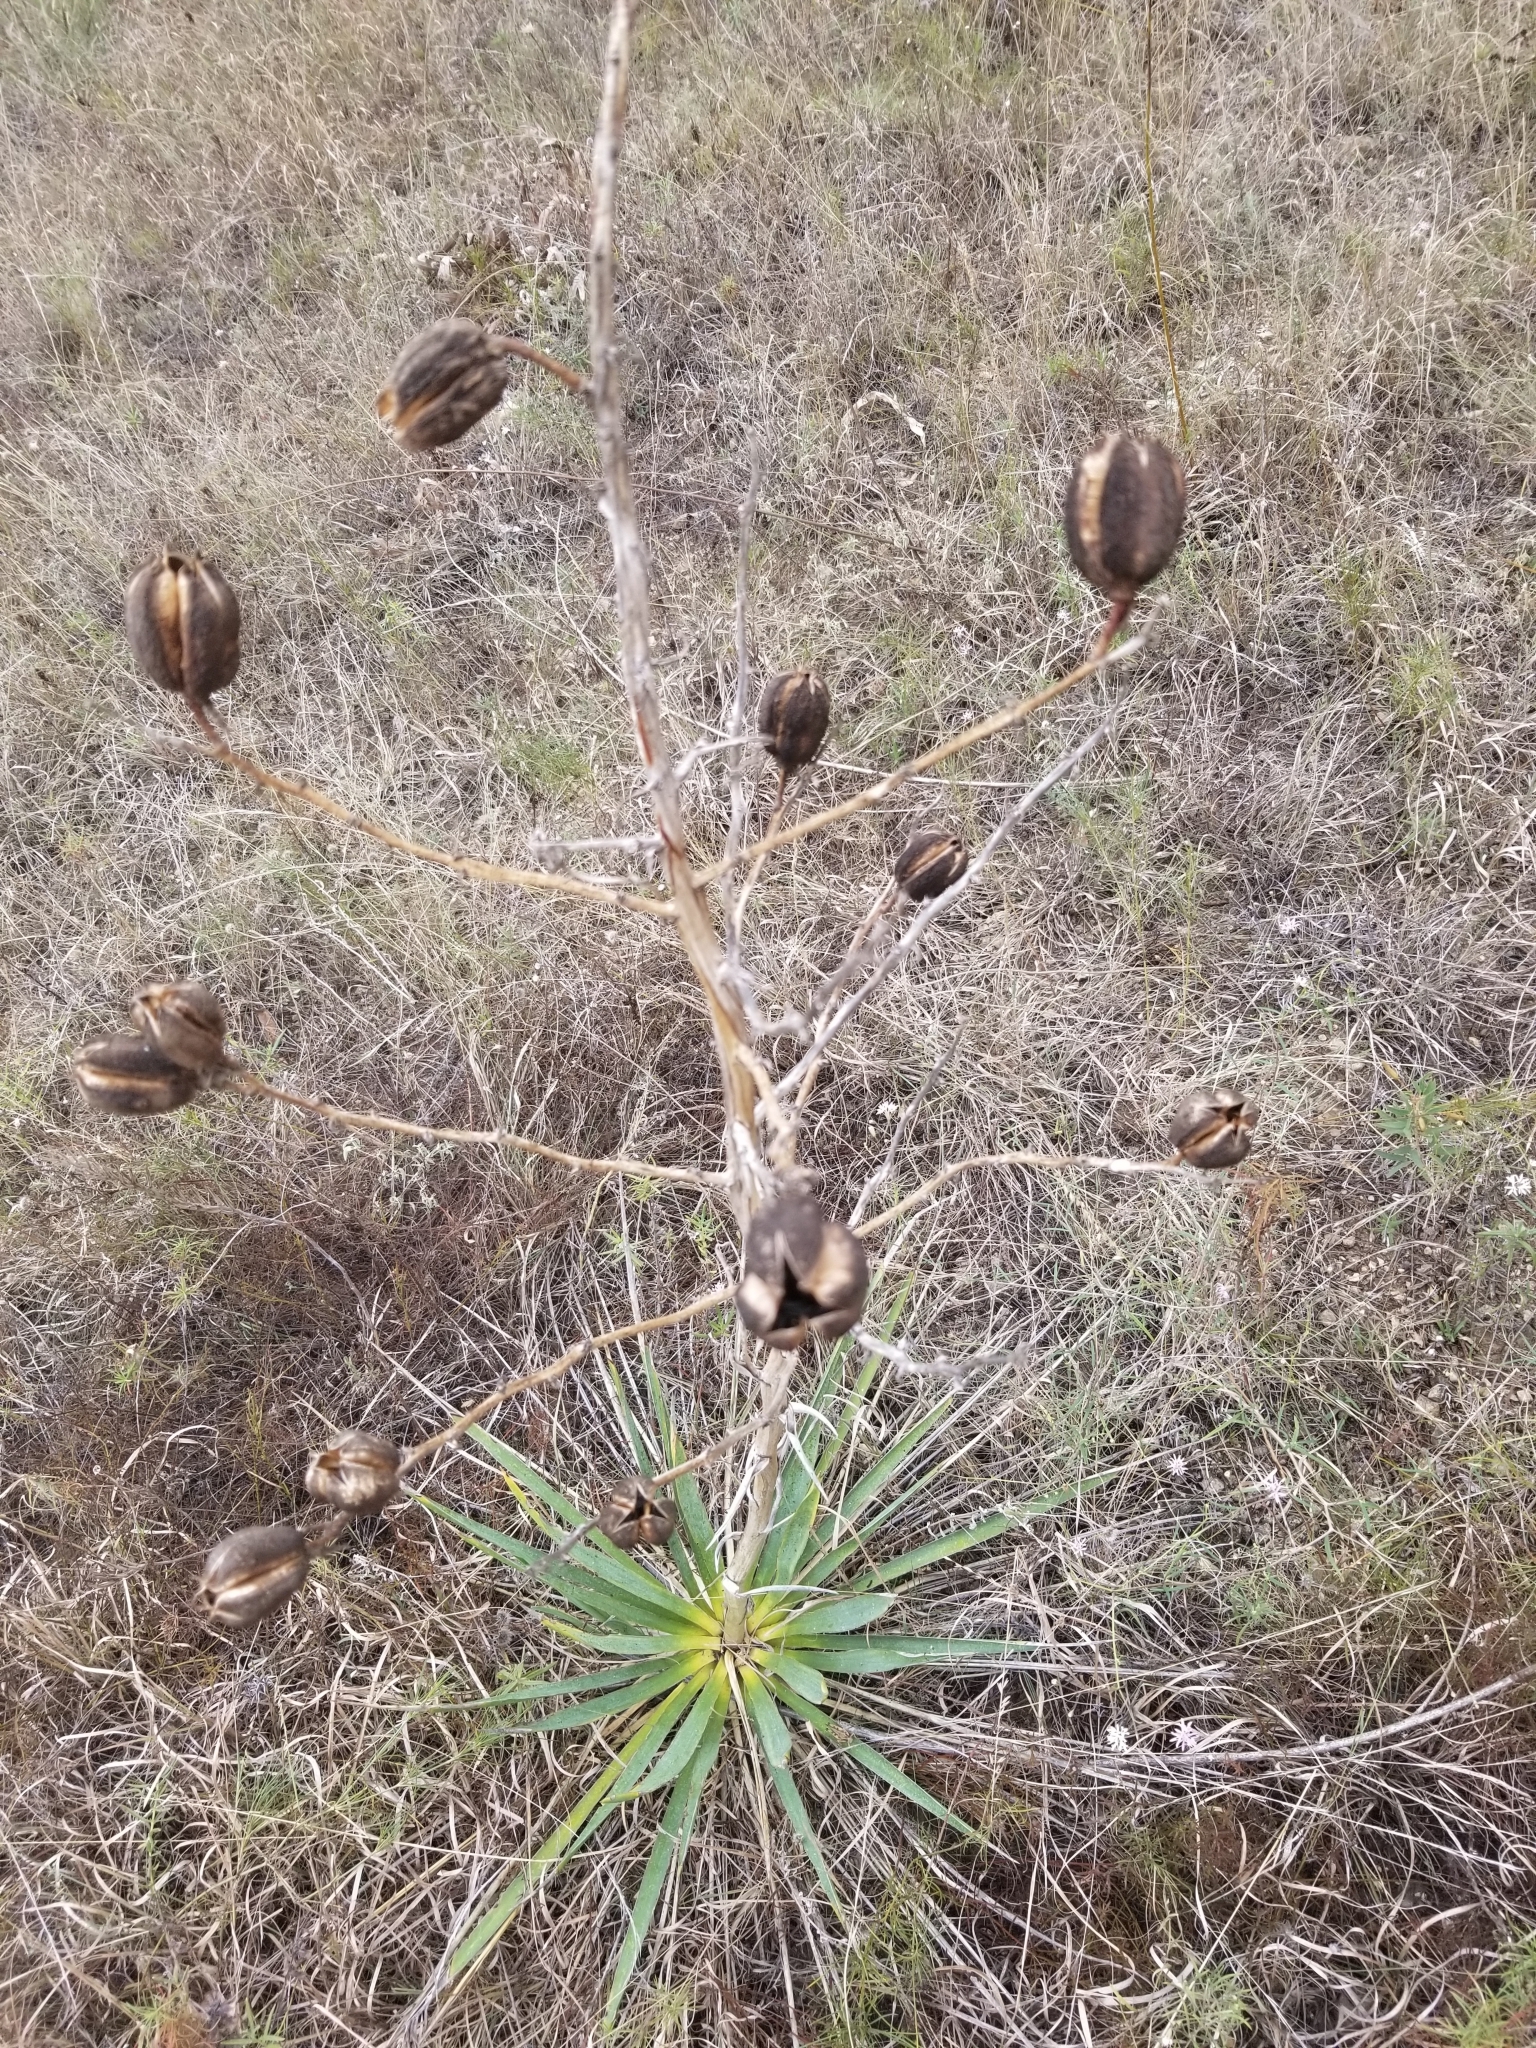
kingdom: Plantae
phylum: Tracheophyta
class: Liliopsida
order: Asparagales
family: Asparagaceae
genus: Yucca
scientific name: Yucca pallida
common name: Pale leaf yucca
